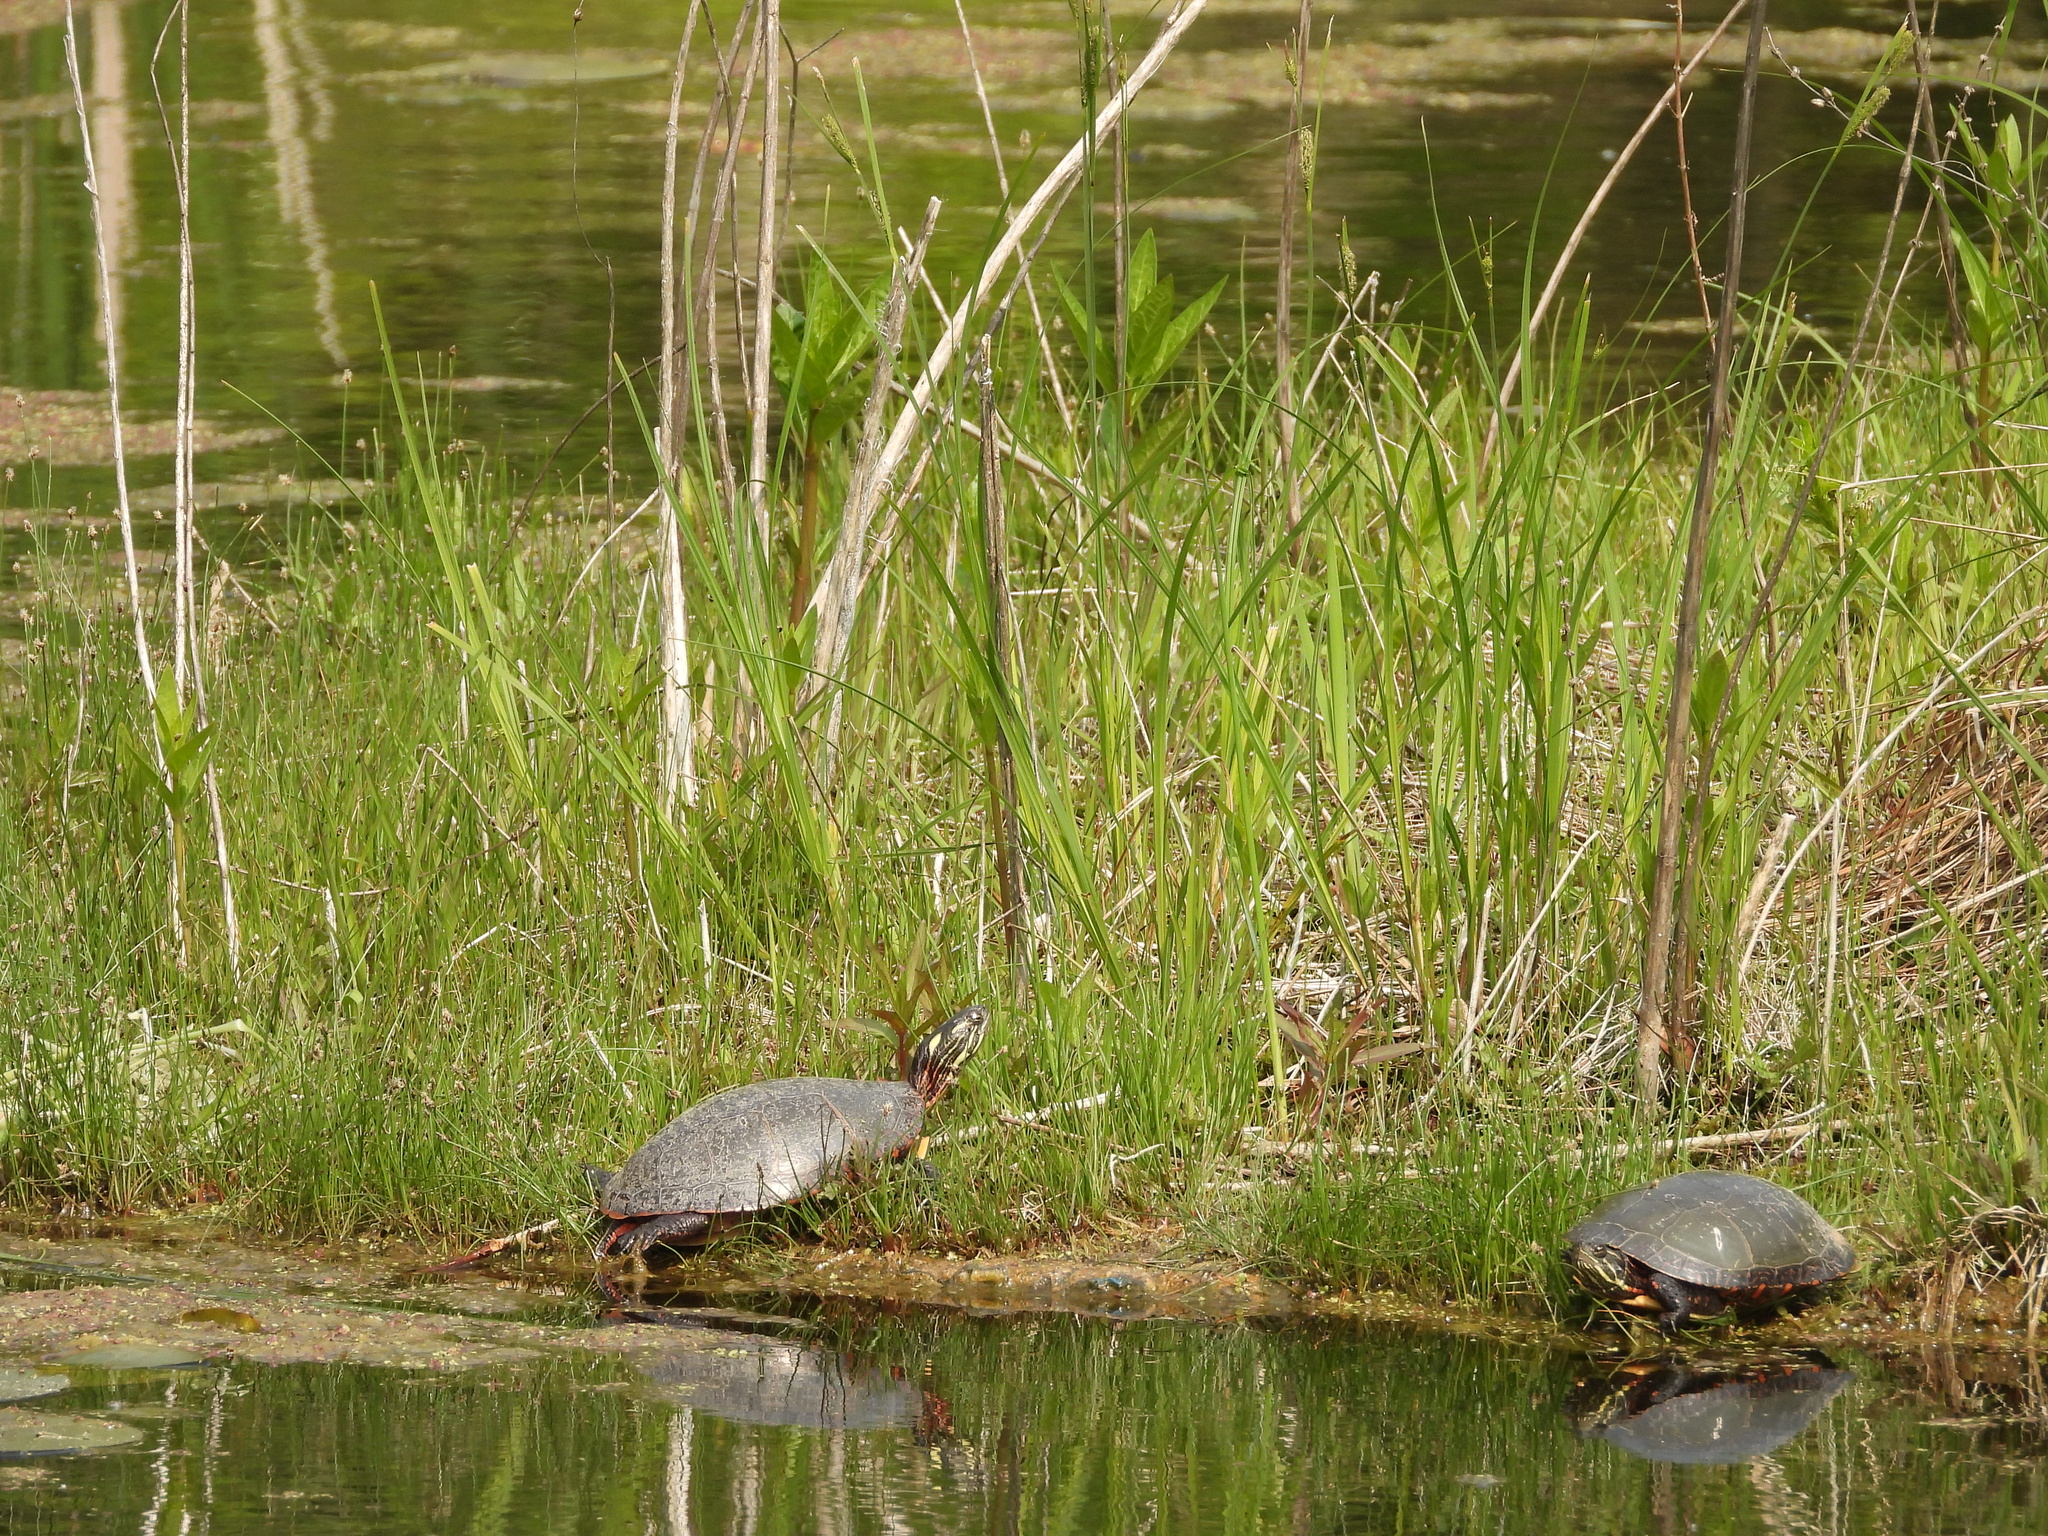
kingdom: Animalia
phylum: Chordata
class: Testudines
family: Emydidae
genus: Chrysemys
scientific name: Chrysemys picta
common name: Painted turtle
